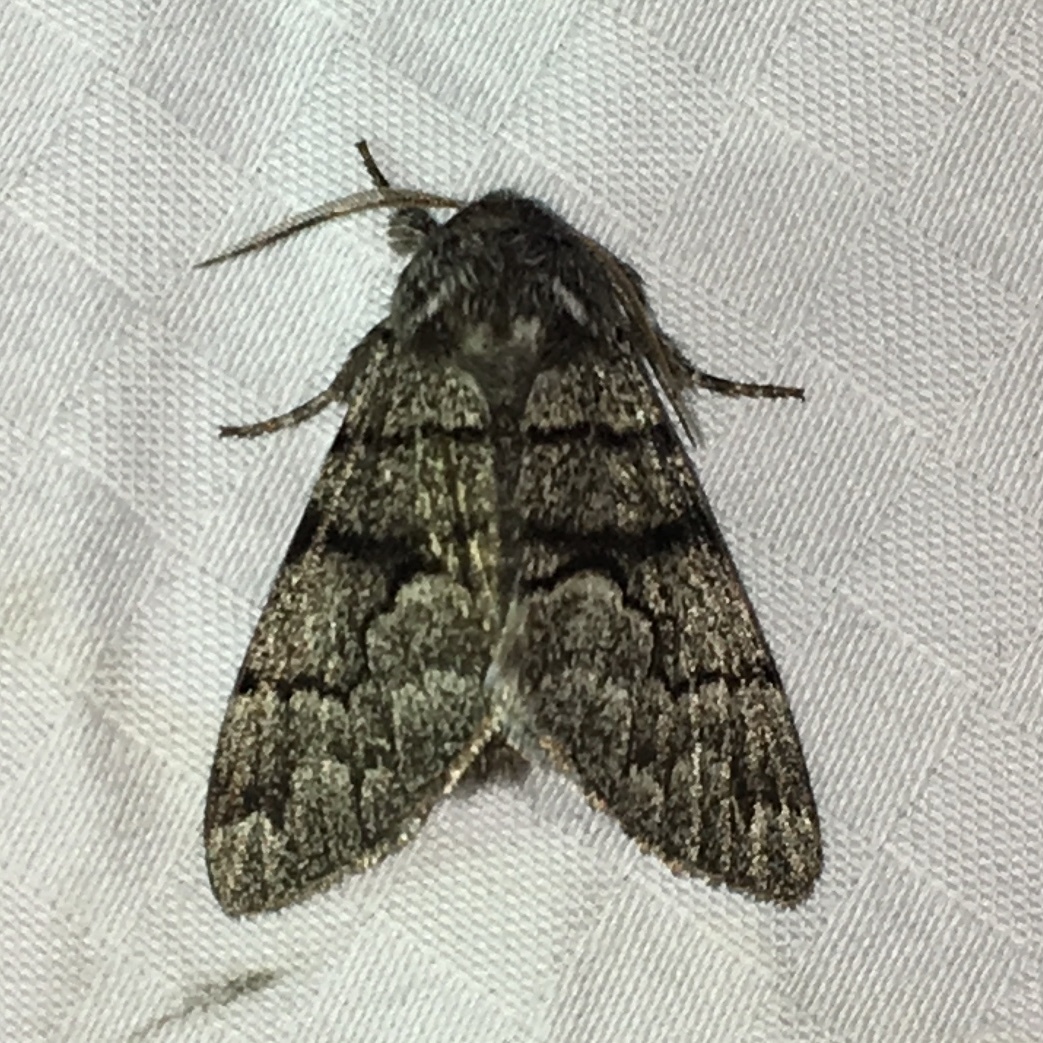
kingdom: Animalia
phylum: Arthropoda
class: Insecta
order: Lepidoptera
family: Noctuidae
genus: Panthea
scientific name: Panthea furcilla
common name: Eastern panthea moth
